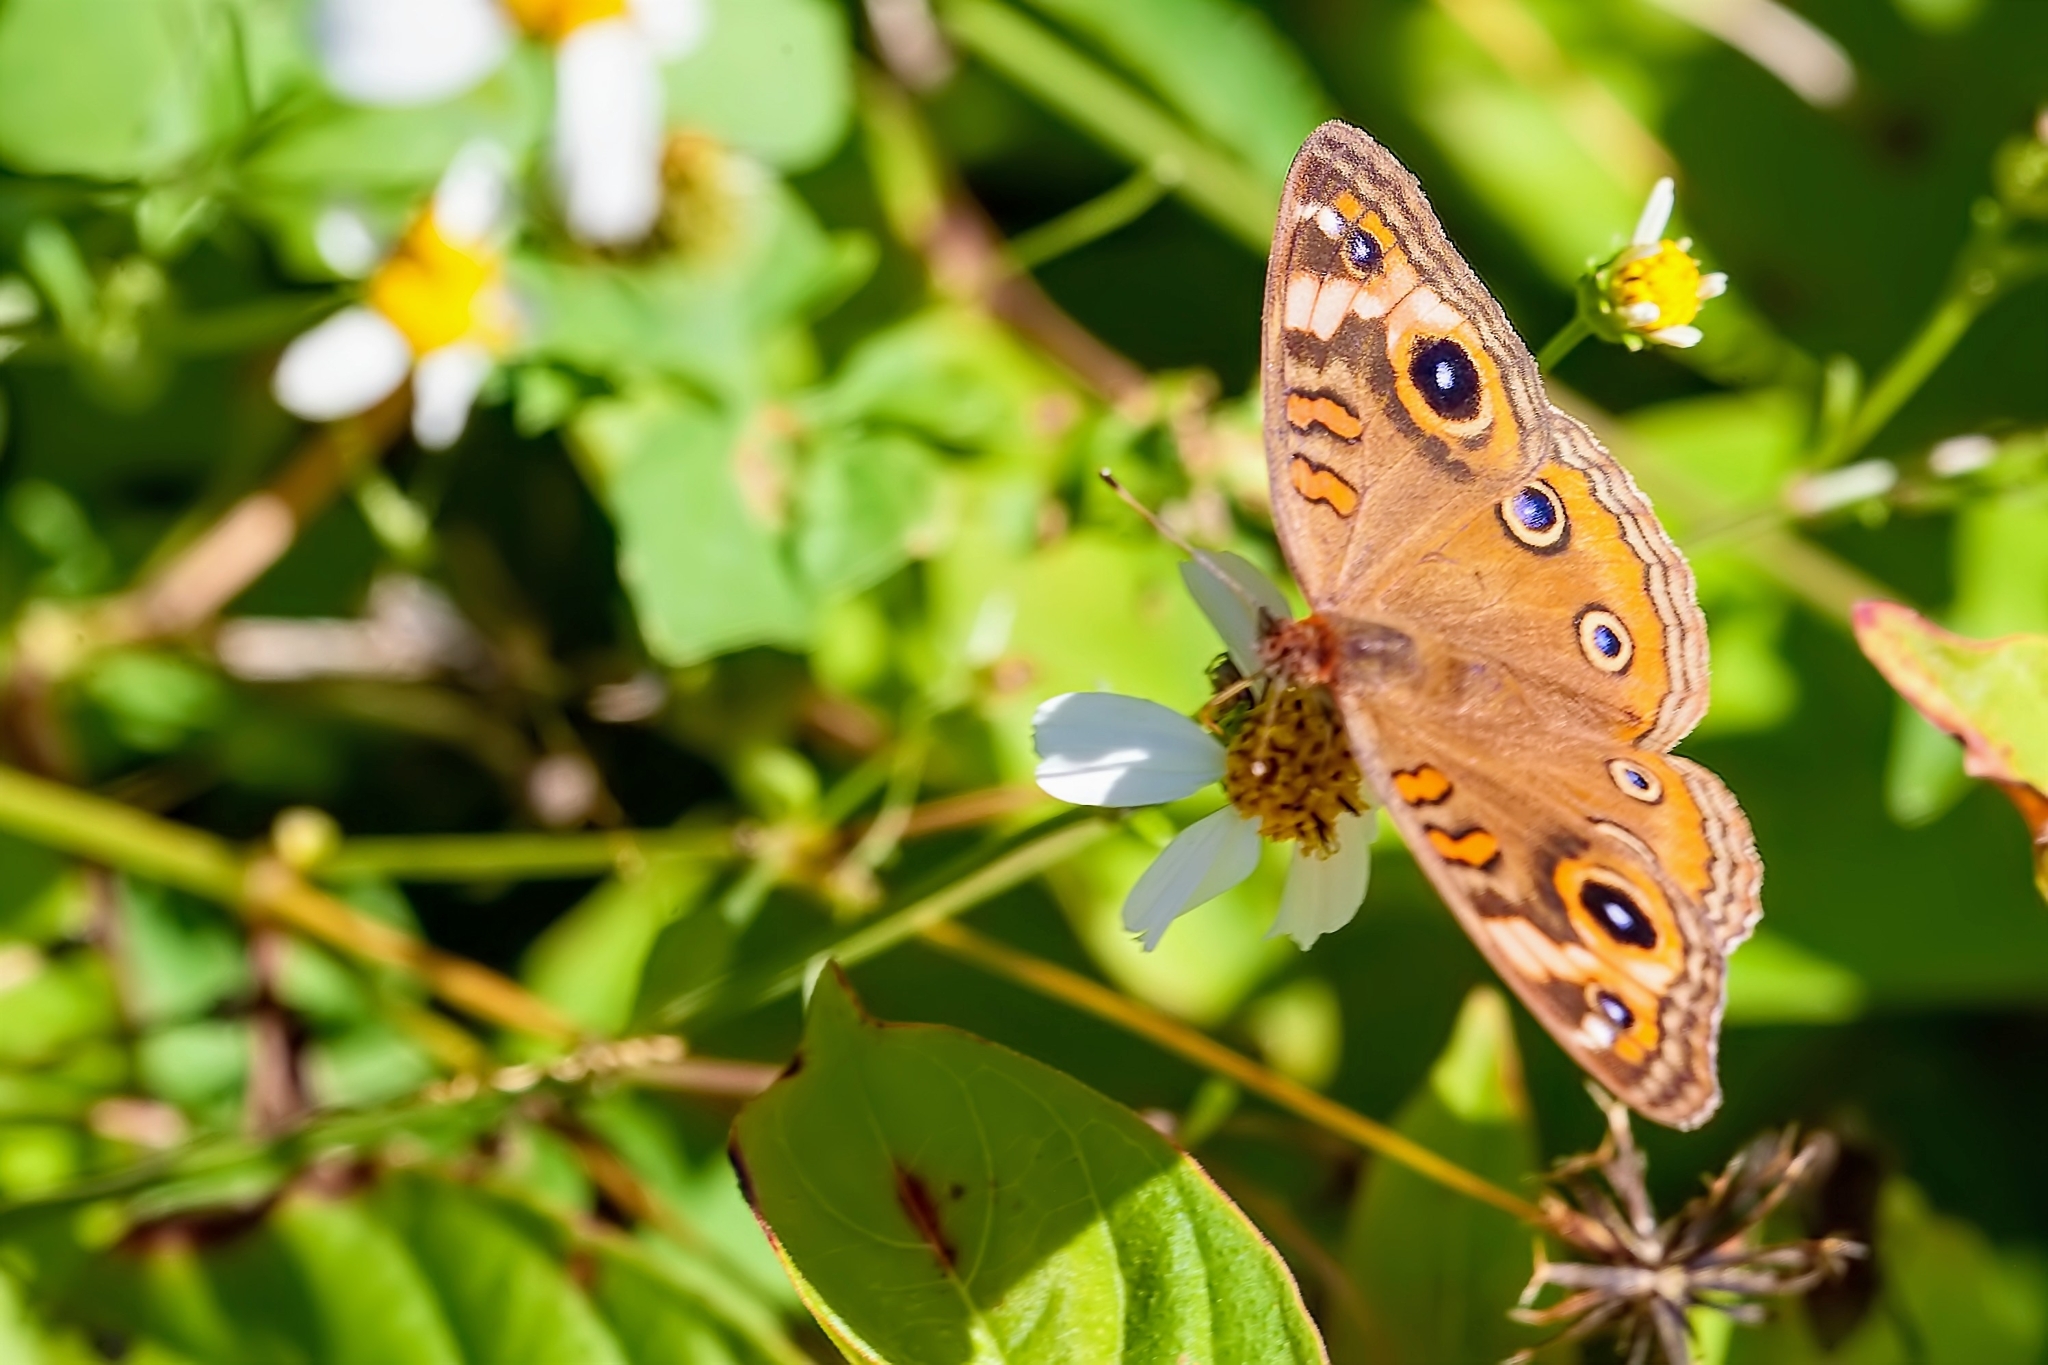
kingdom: Animalia
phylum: Arthropoda
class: Insecta
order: Lepidoptera
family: Nymphalidae
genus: Junonia
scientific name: Junonia neildi
